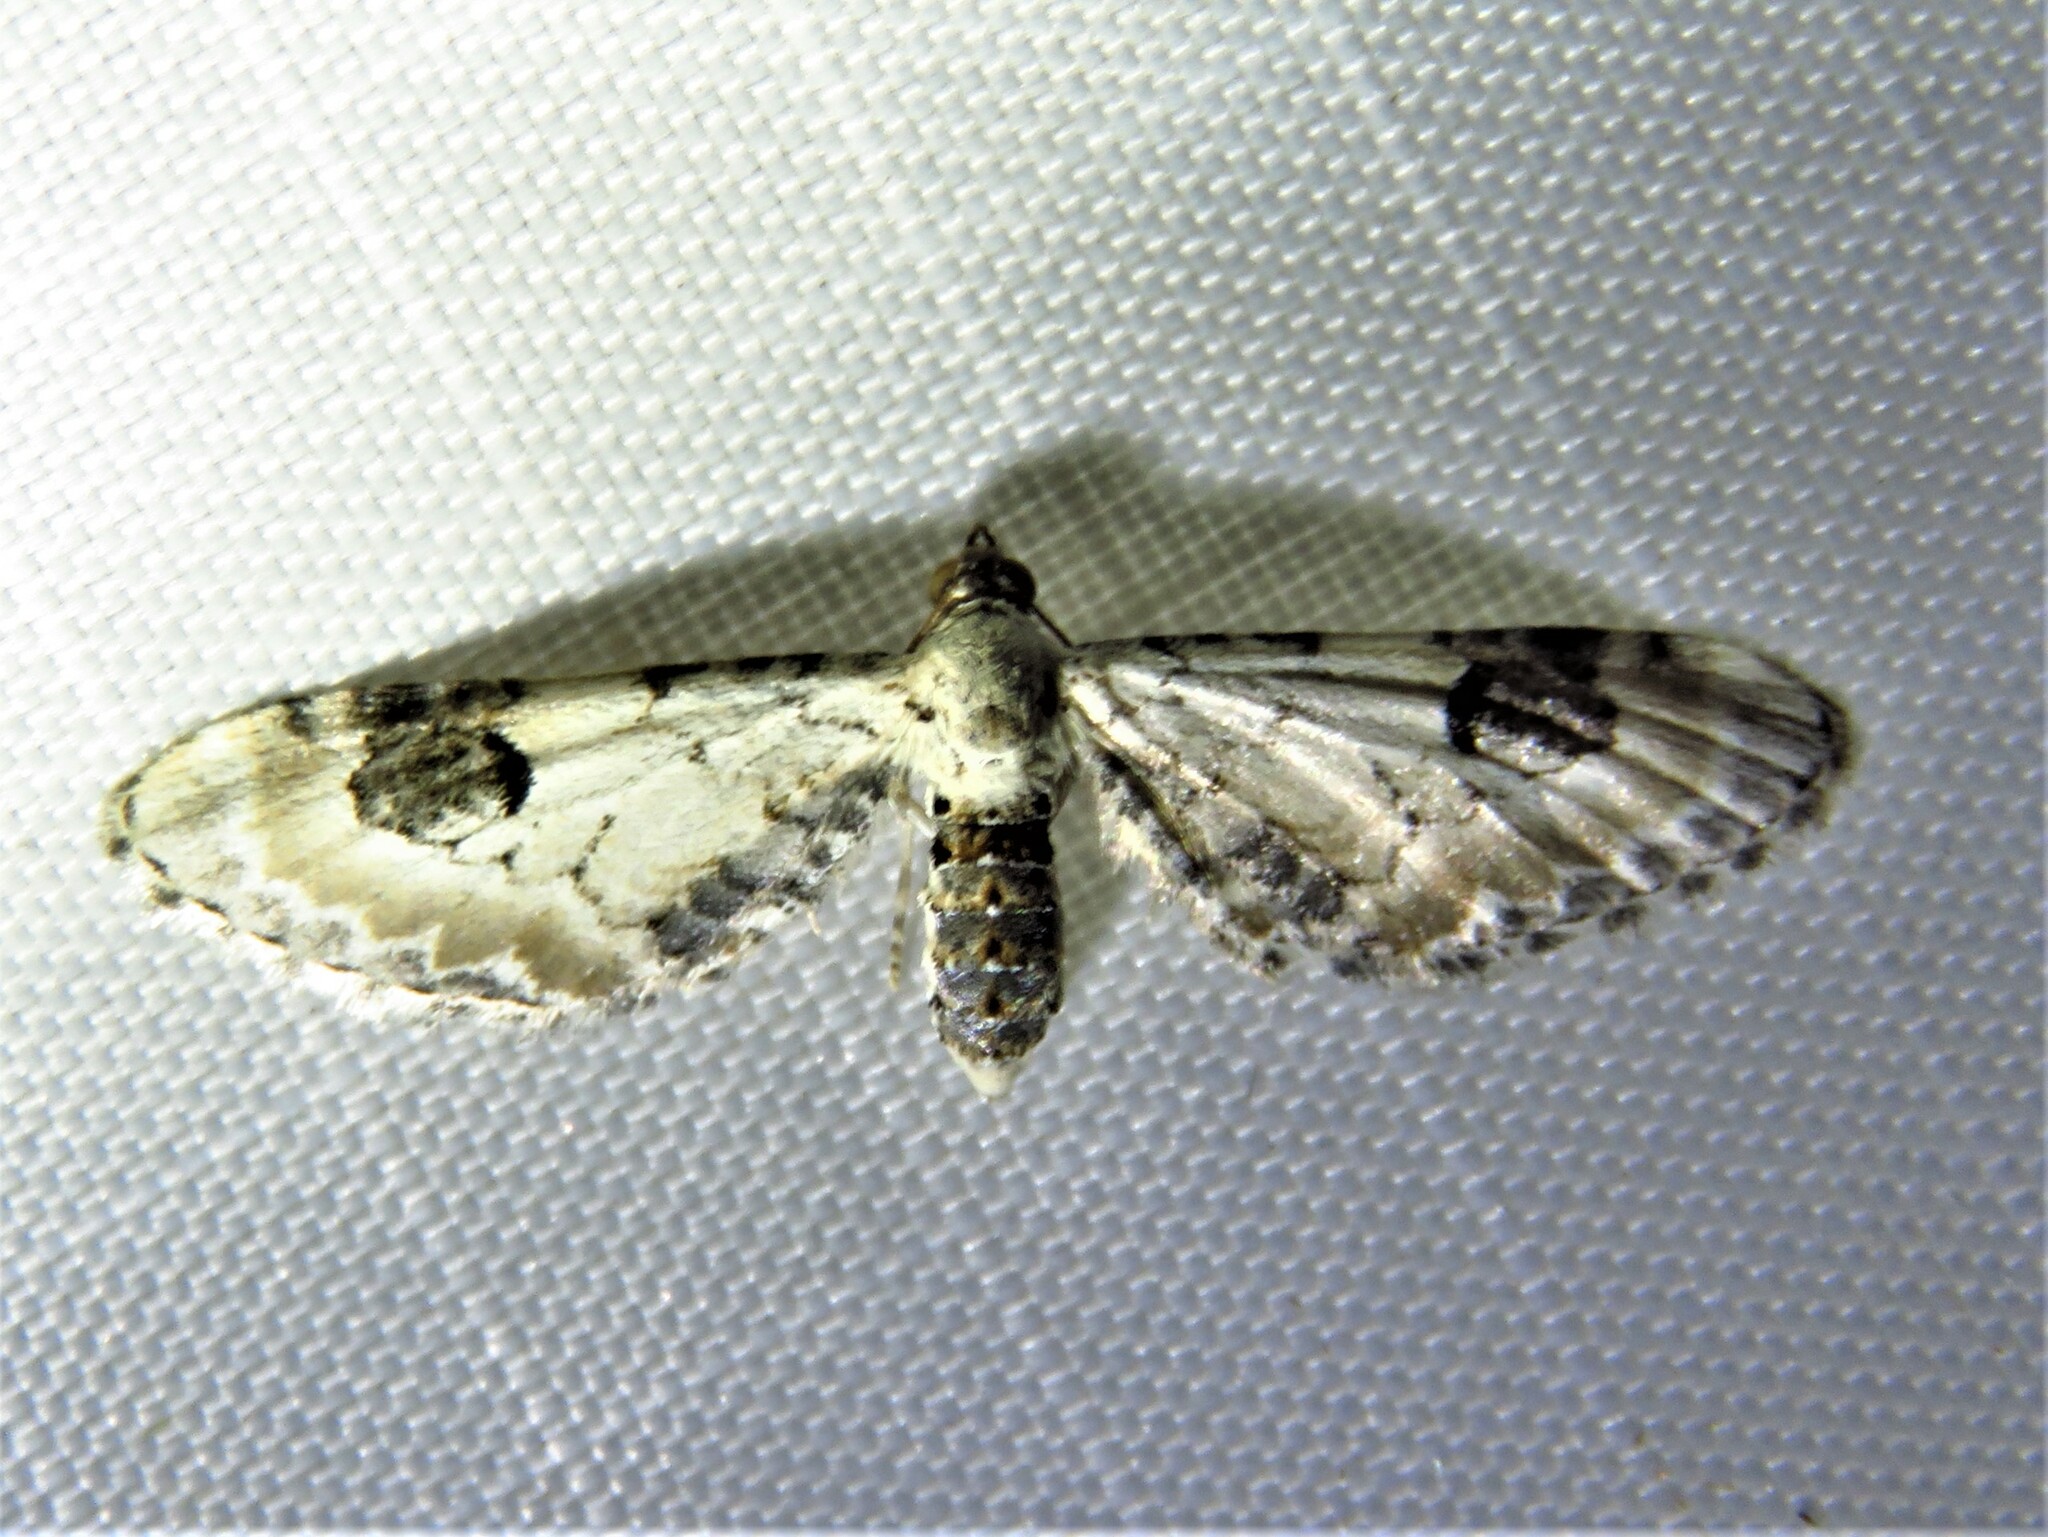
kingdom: Animalia
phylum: Arthropoda
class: Insecta
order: Lepidoptera
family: Geometridae
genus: Eupithecia
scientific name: Eupithecia centaureata
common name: Lime-speck pug
